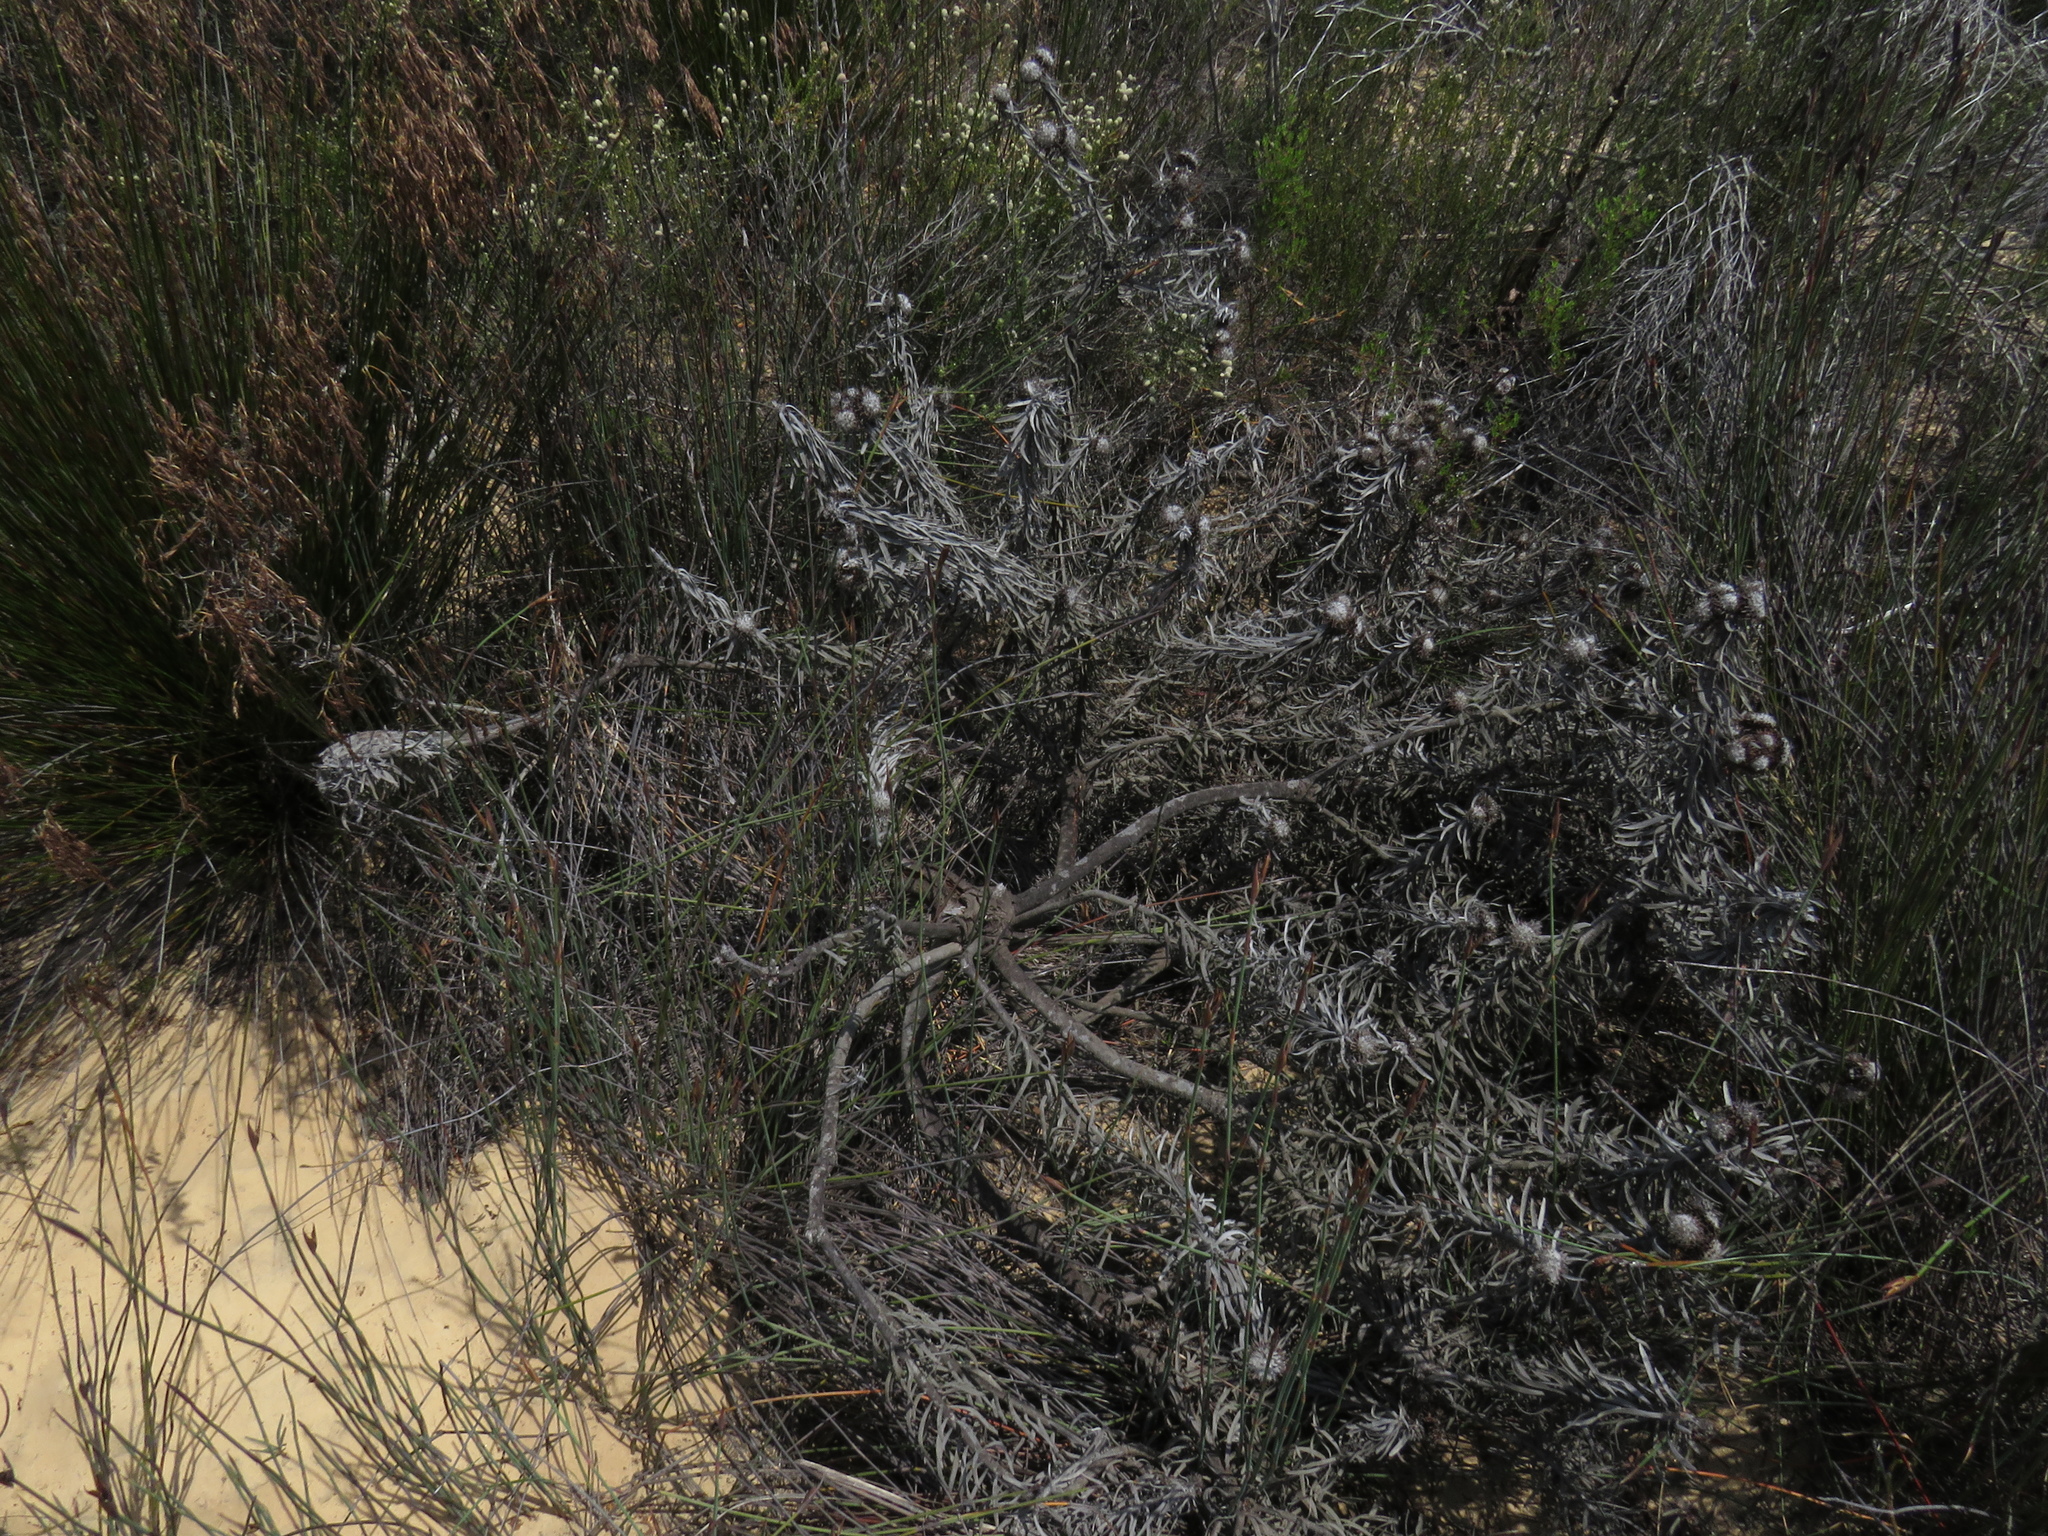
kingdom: Plantae
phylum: Tracheophyta
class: Magnoliopsida
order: Proteales
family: Proteaceae
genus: Leucospermum
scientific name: Leucospermum parile
